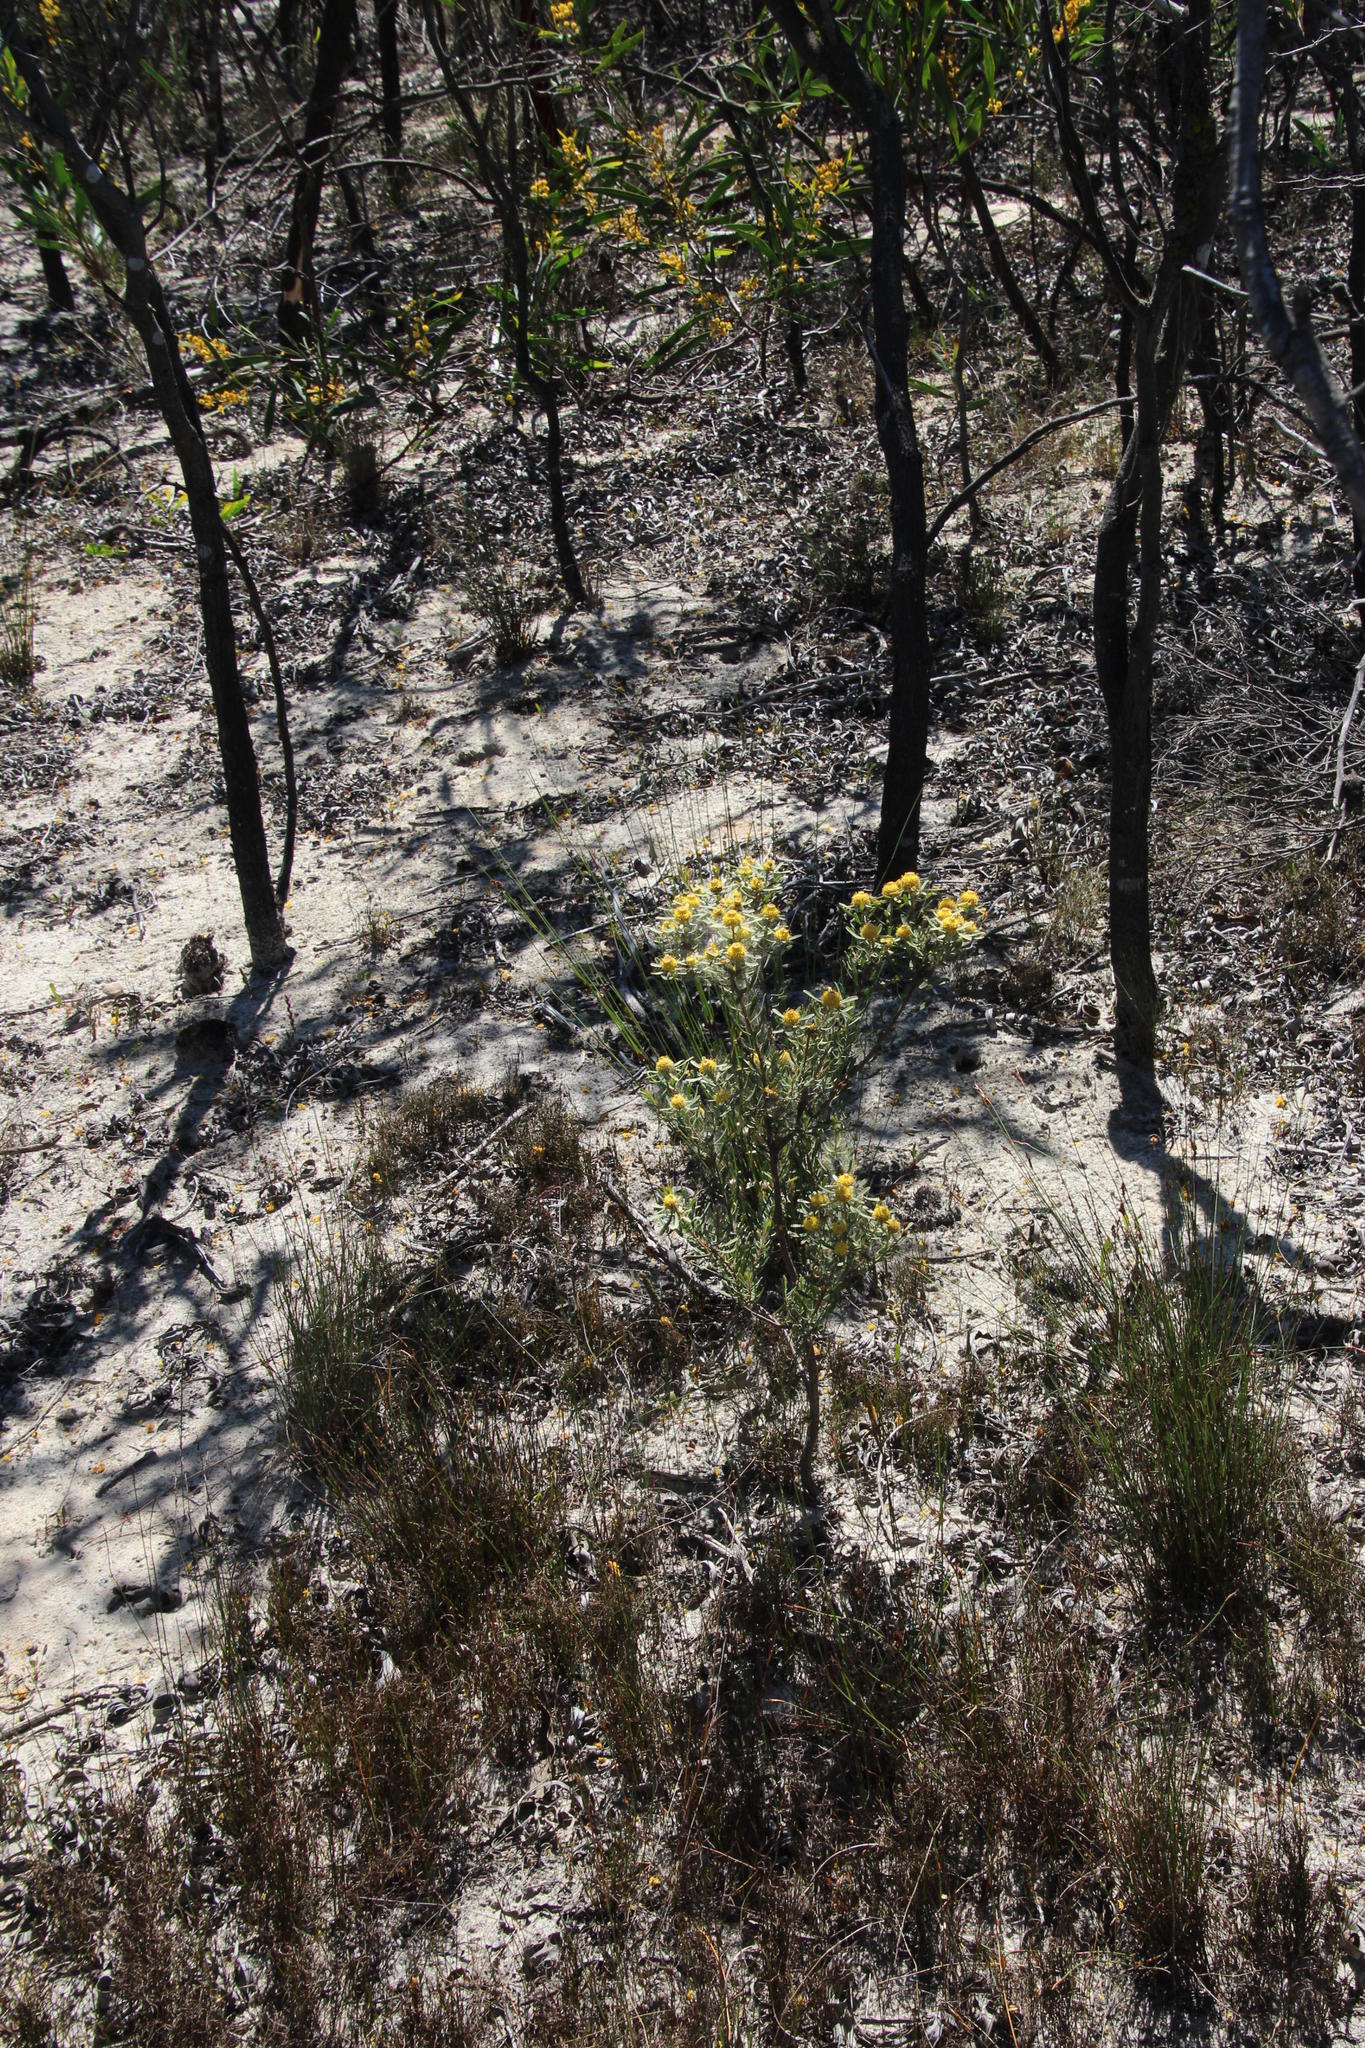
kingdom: Plantae
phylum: Tracheophyta
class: Magnoliopsida
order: Proteales
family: Proteaceae
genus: Leucadendron
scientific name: Leucadendron lanigerum
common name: Shale conebush
